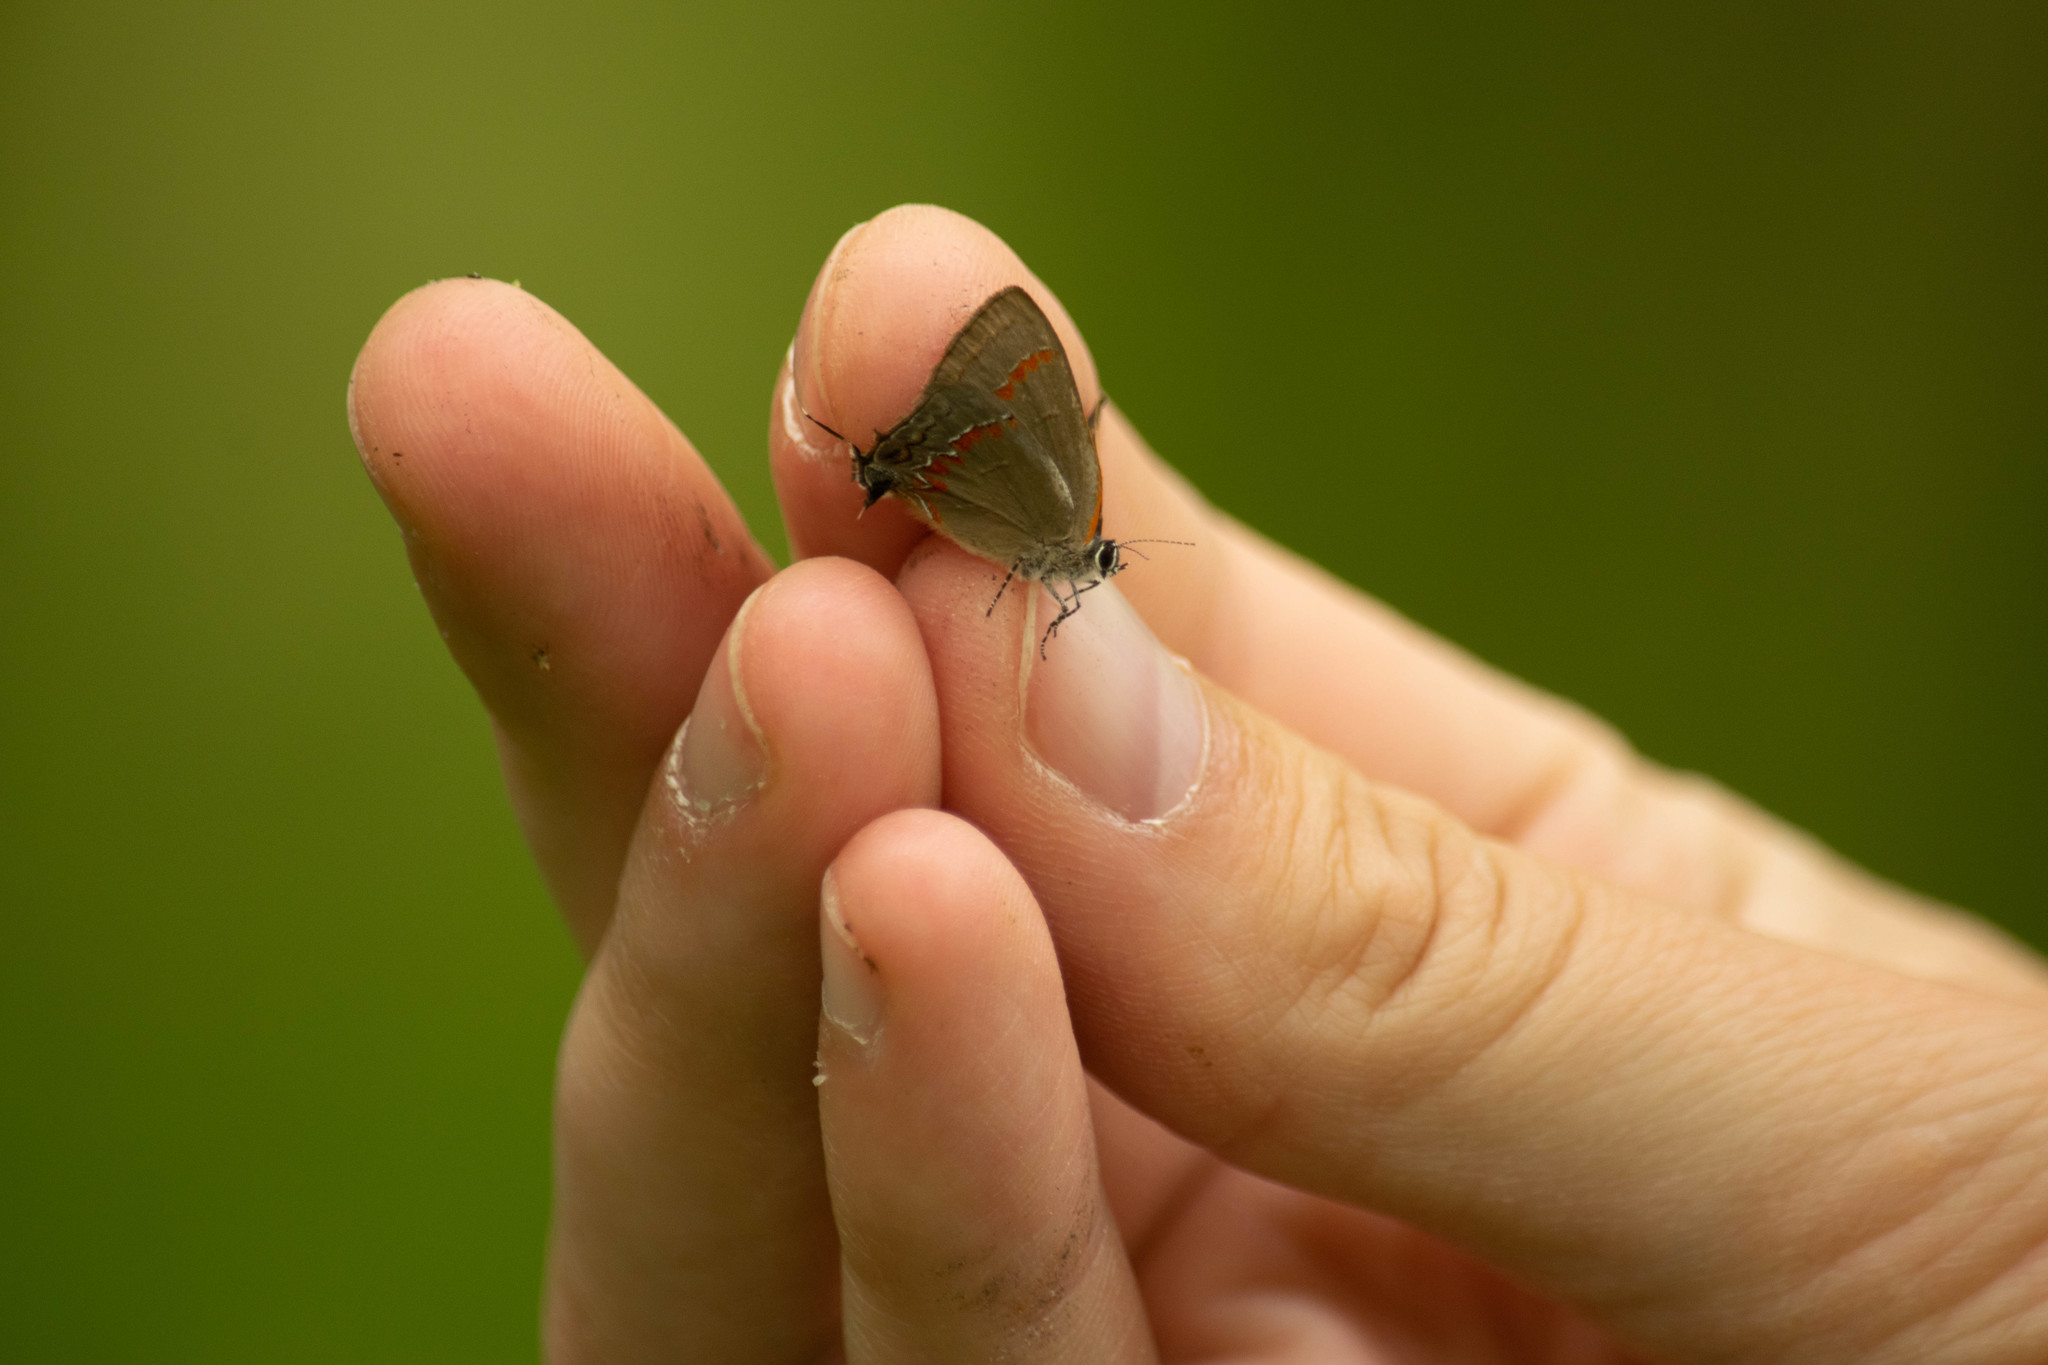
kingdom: Animalia
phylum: Arthropoda
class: Insecta
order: Lepidoptera
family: Lycaenidae
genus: Calycopis
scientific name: Calycopis cecrops
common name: Red-banded hairstreak
